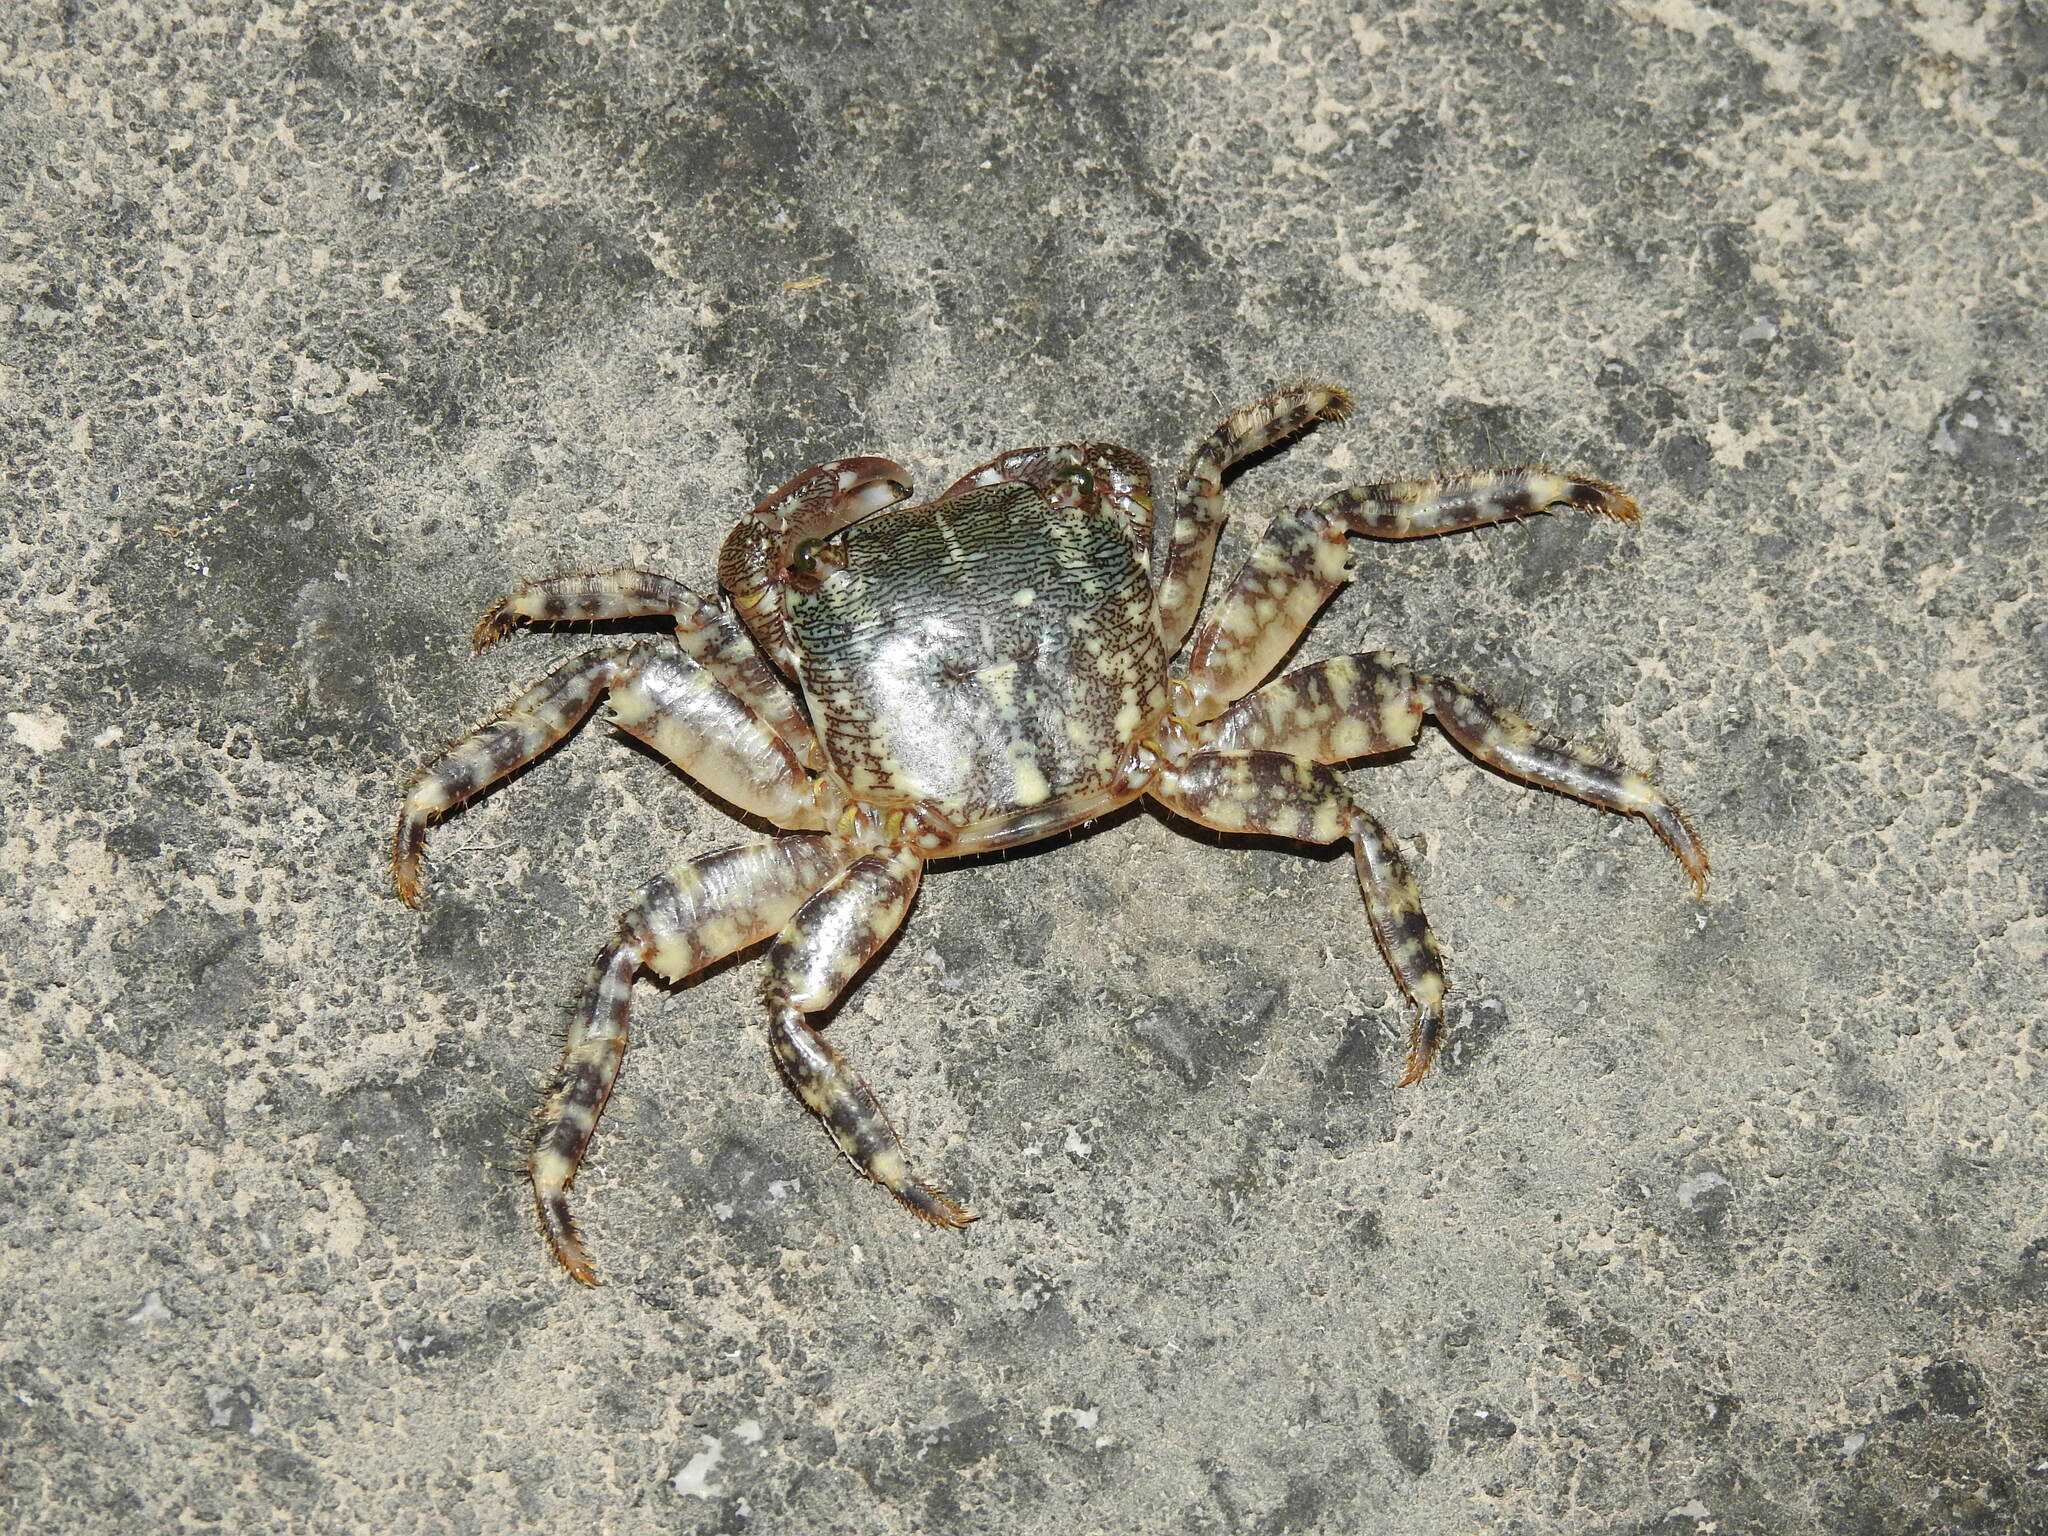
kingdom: Animalia
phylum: Arthropoda
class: Malacostraca
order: Decapoda
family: Grapsidae
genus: Pachygrapsus
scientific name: Pachygrapsus marmoratus
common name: Marbled rock crab
